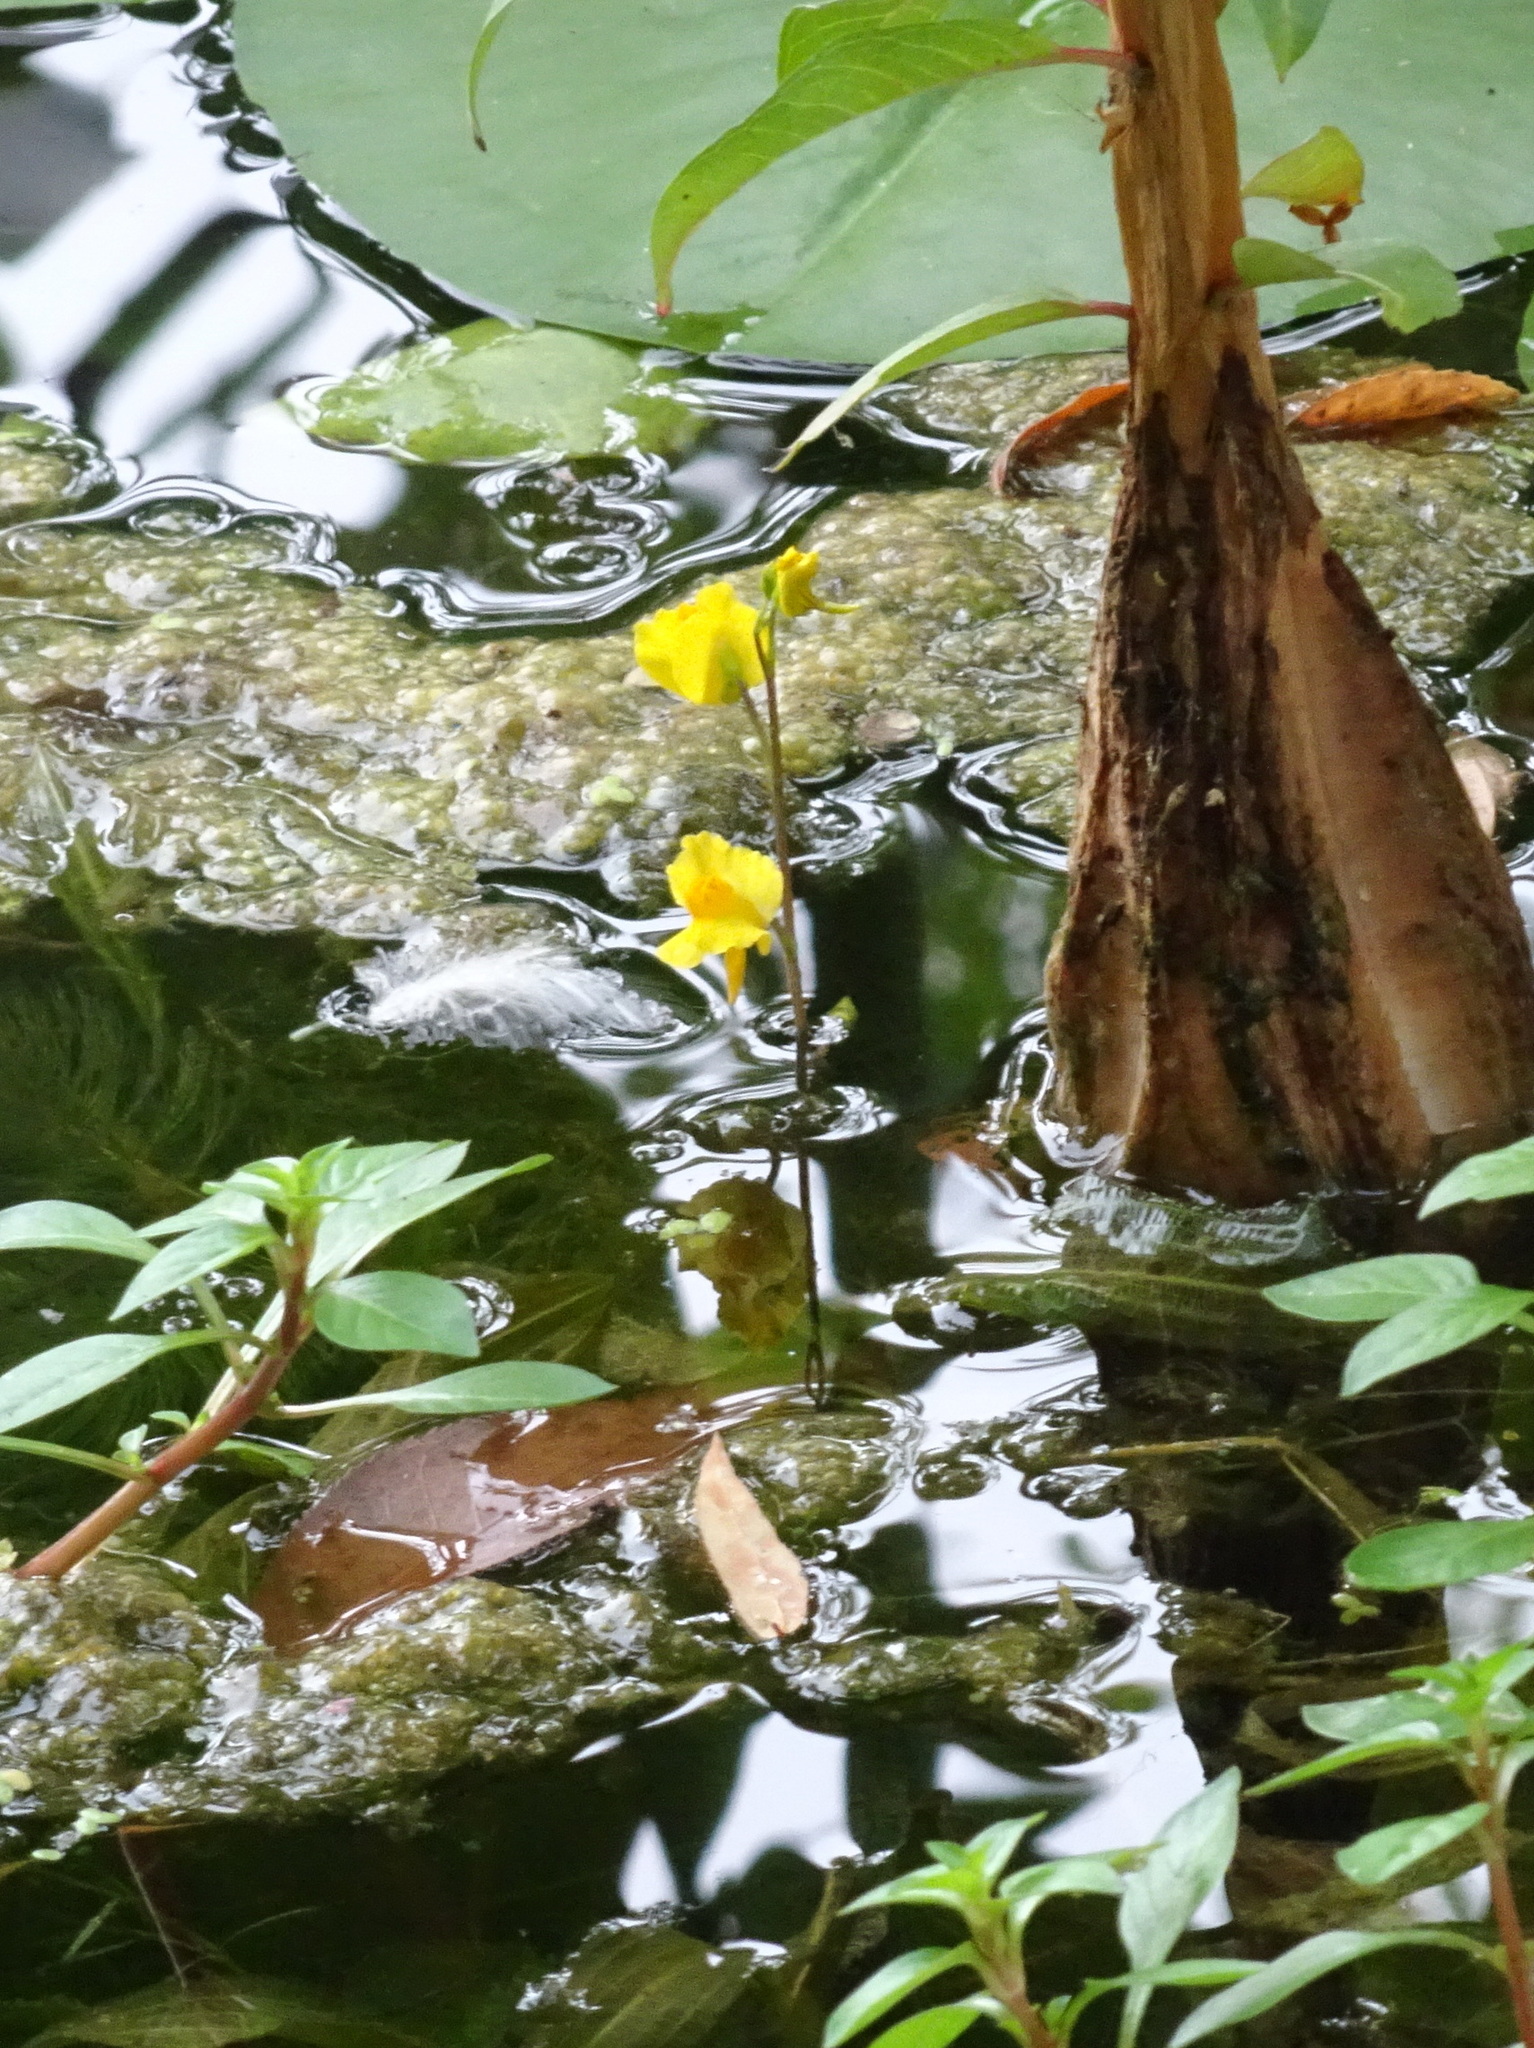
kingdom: Plantae
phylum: Tracheophyta
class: Magnoliopsida
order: Lamiales
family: Lentibulariaceae
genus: Utricularia
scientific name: Utricularia macrorhiza
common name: Common bladderwort
